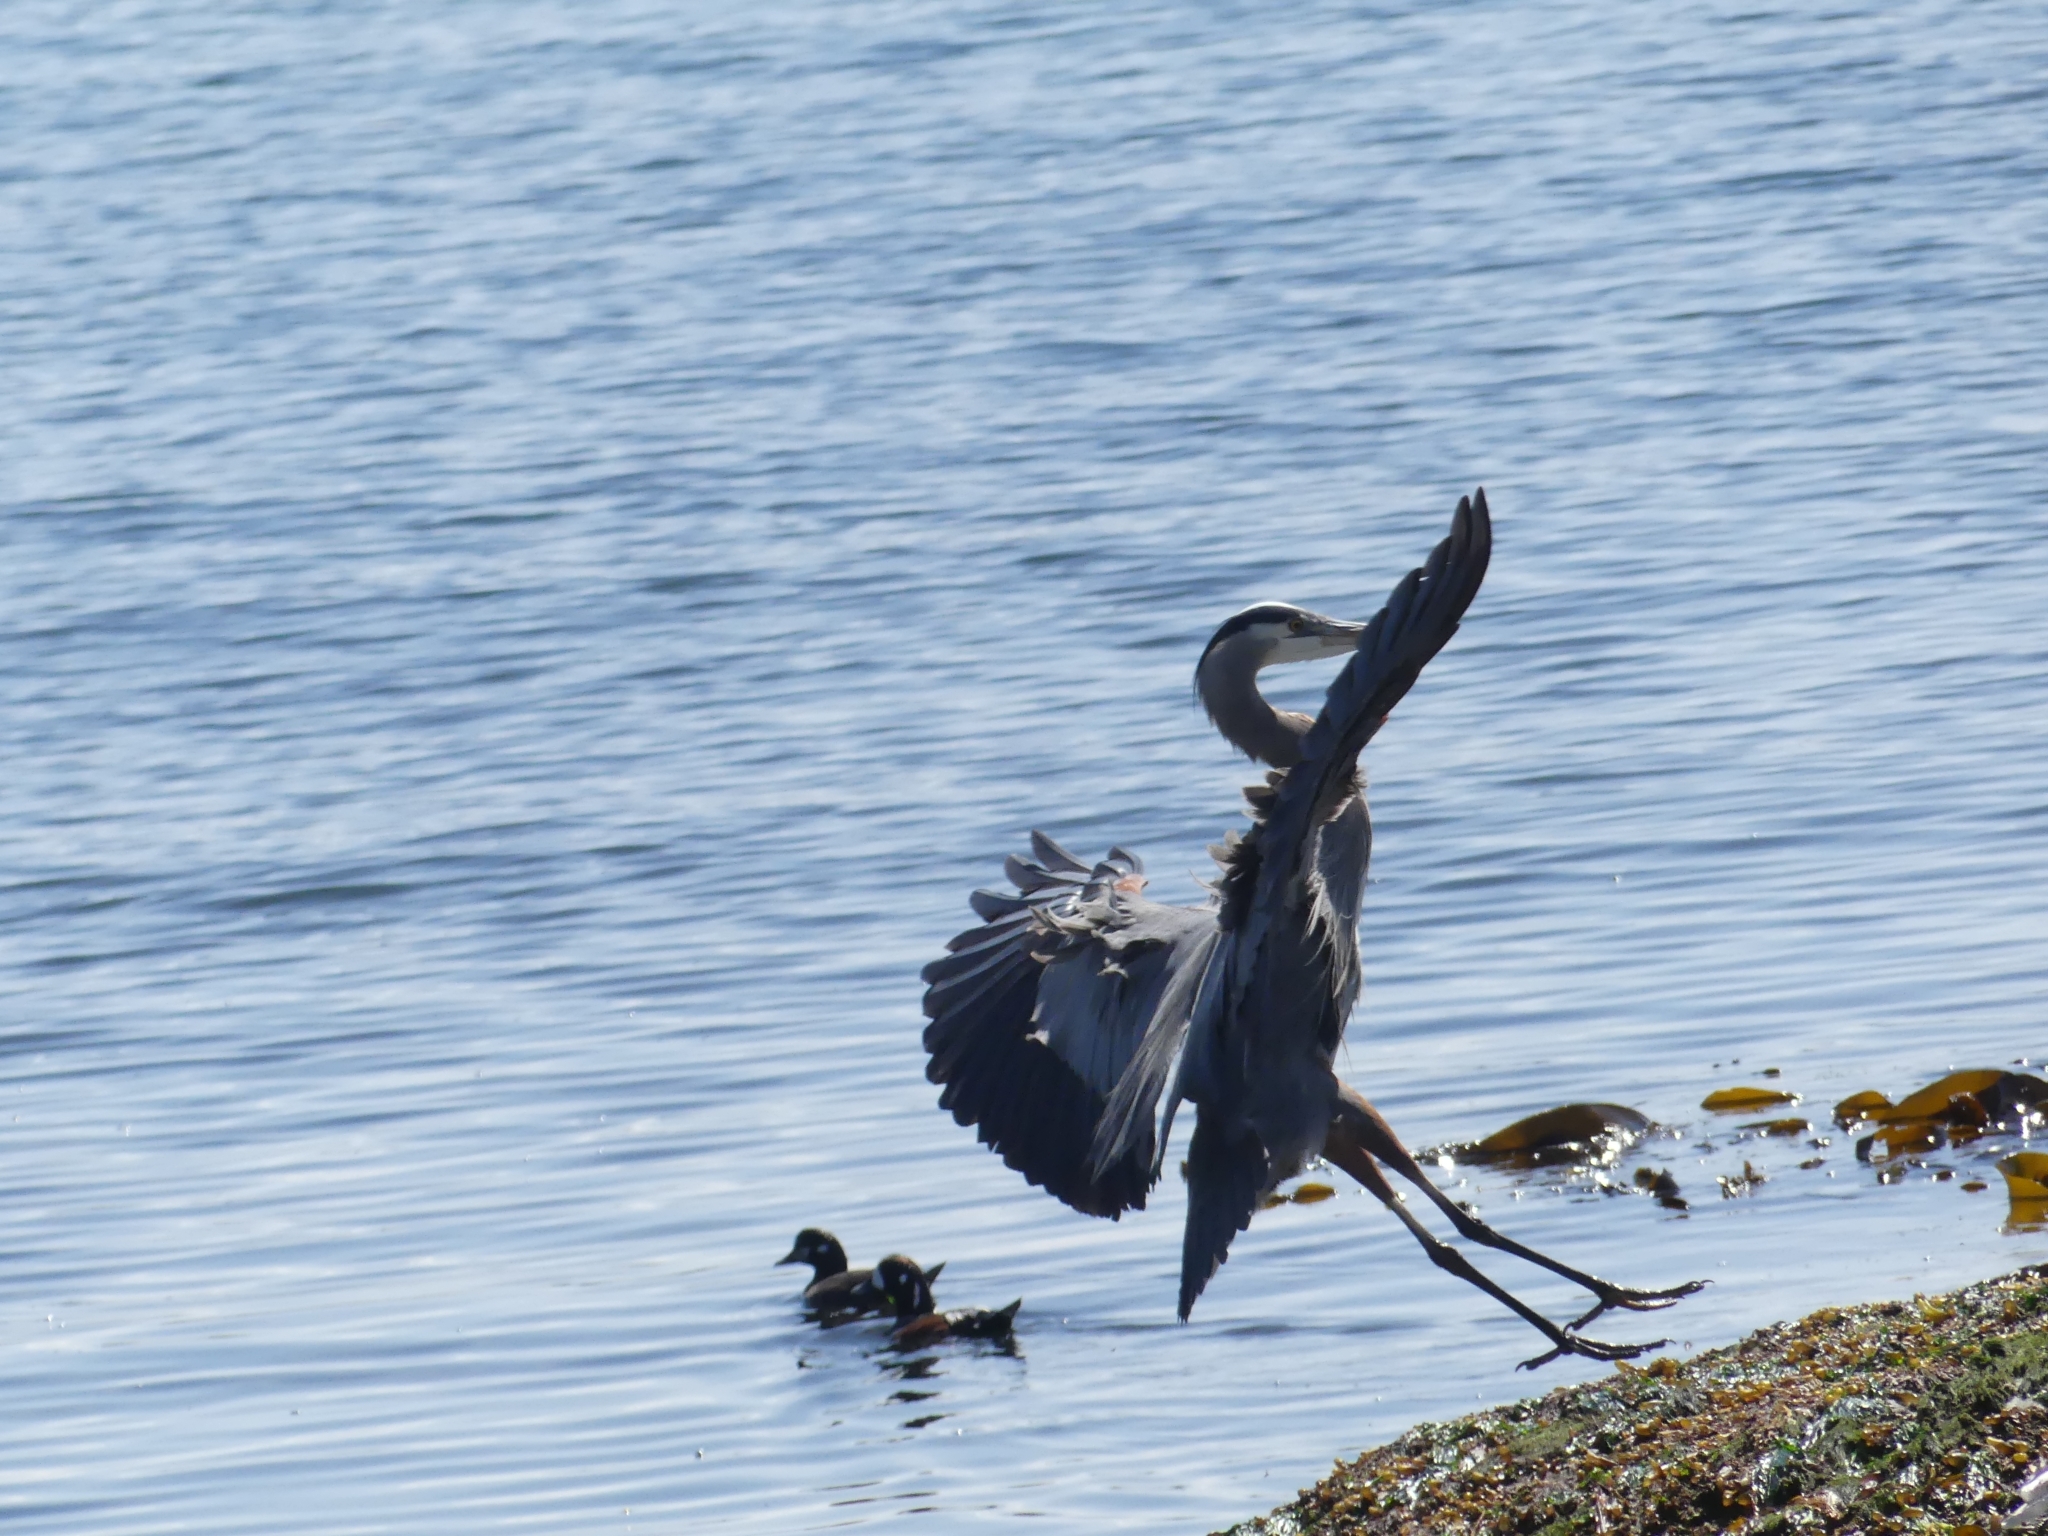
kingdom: Animalia
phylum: Chordata
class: Aves
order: Pelecaniformes
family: Ardeidae
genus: Ardea
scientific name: Ardea herodias
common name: Great blue heron
